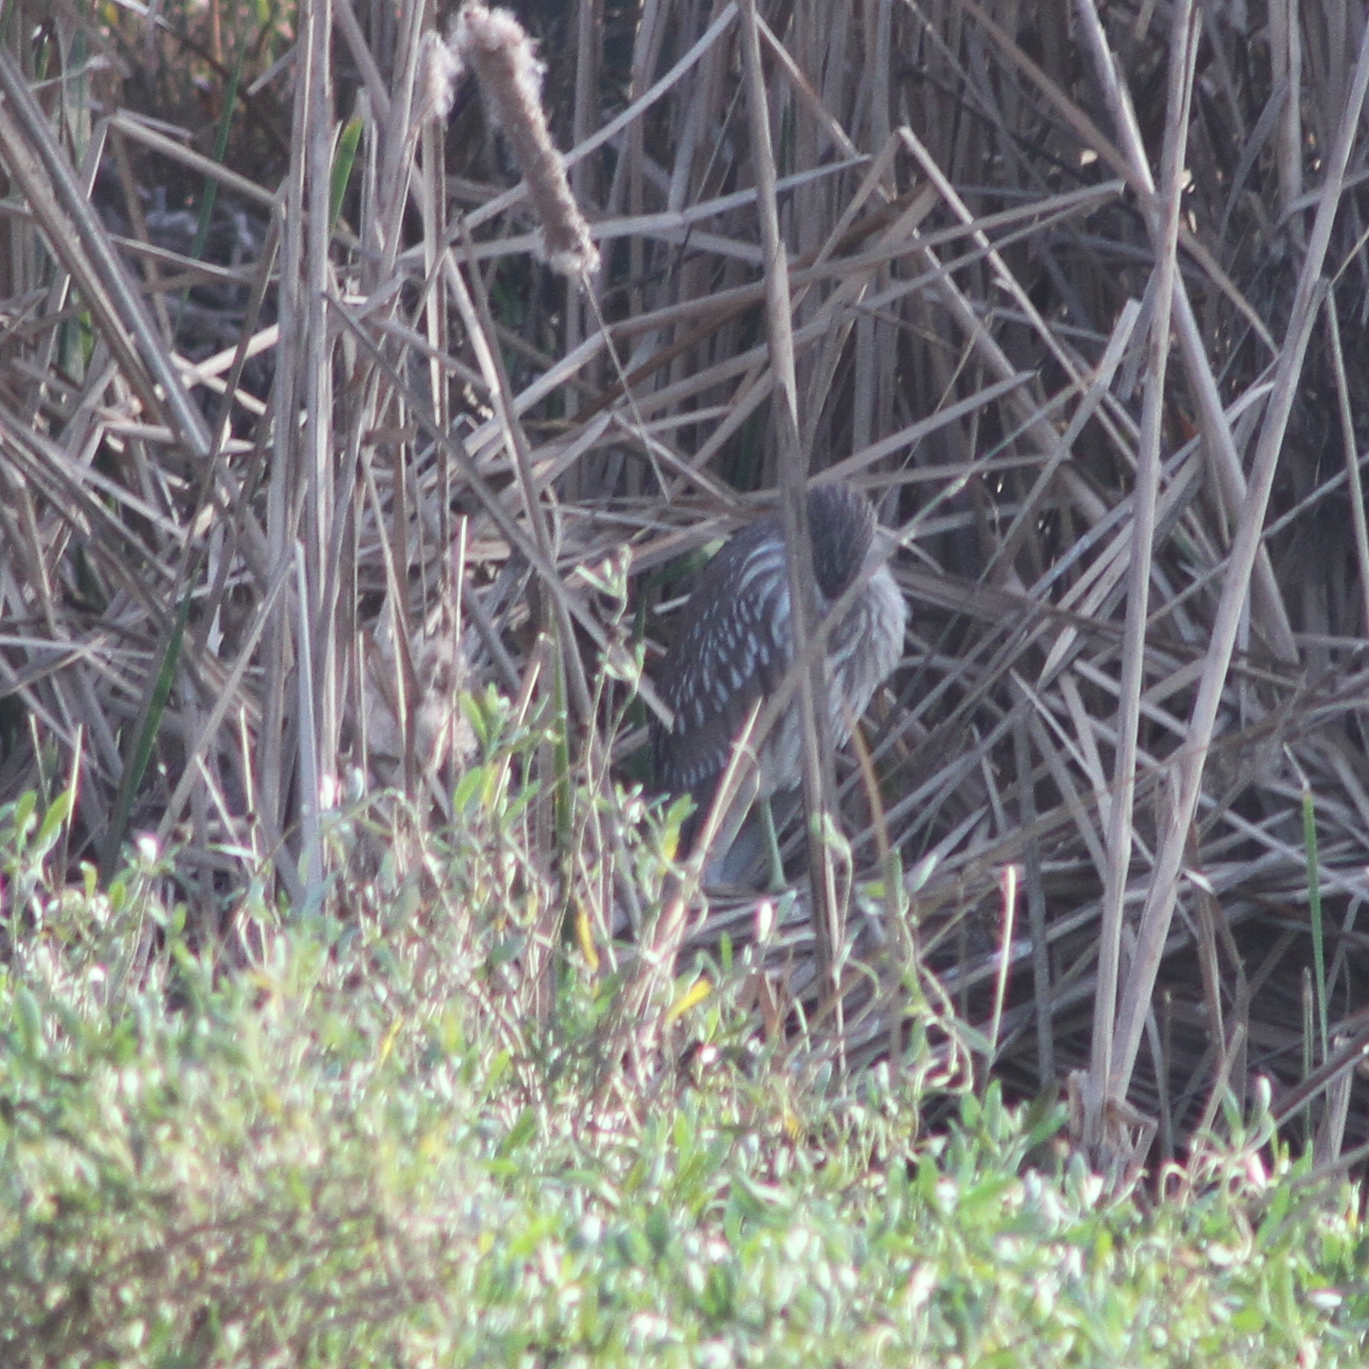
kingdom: Animalia
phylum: Chordata
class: Aves
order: Pelecaniformes
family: Ardeidae
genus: Nycticorax
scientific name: Nycticorax nycticorax
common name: Black-crowned night heron
